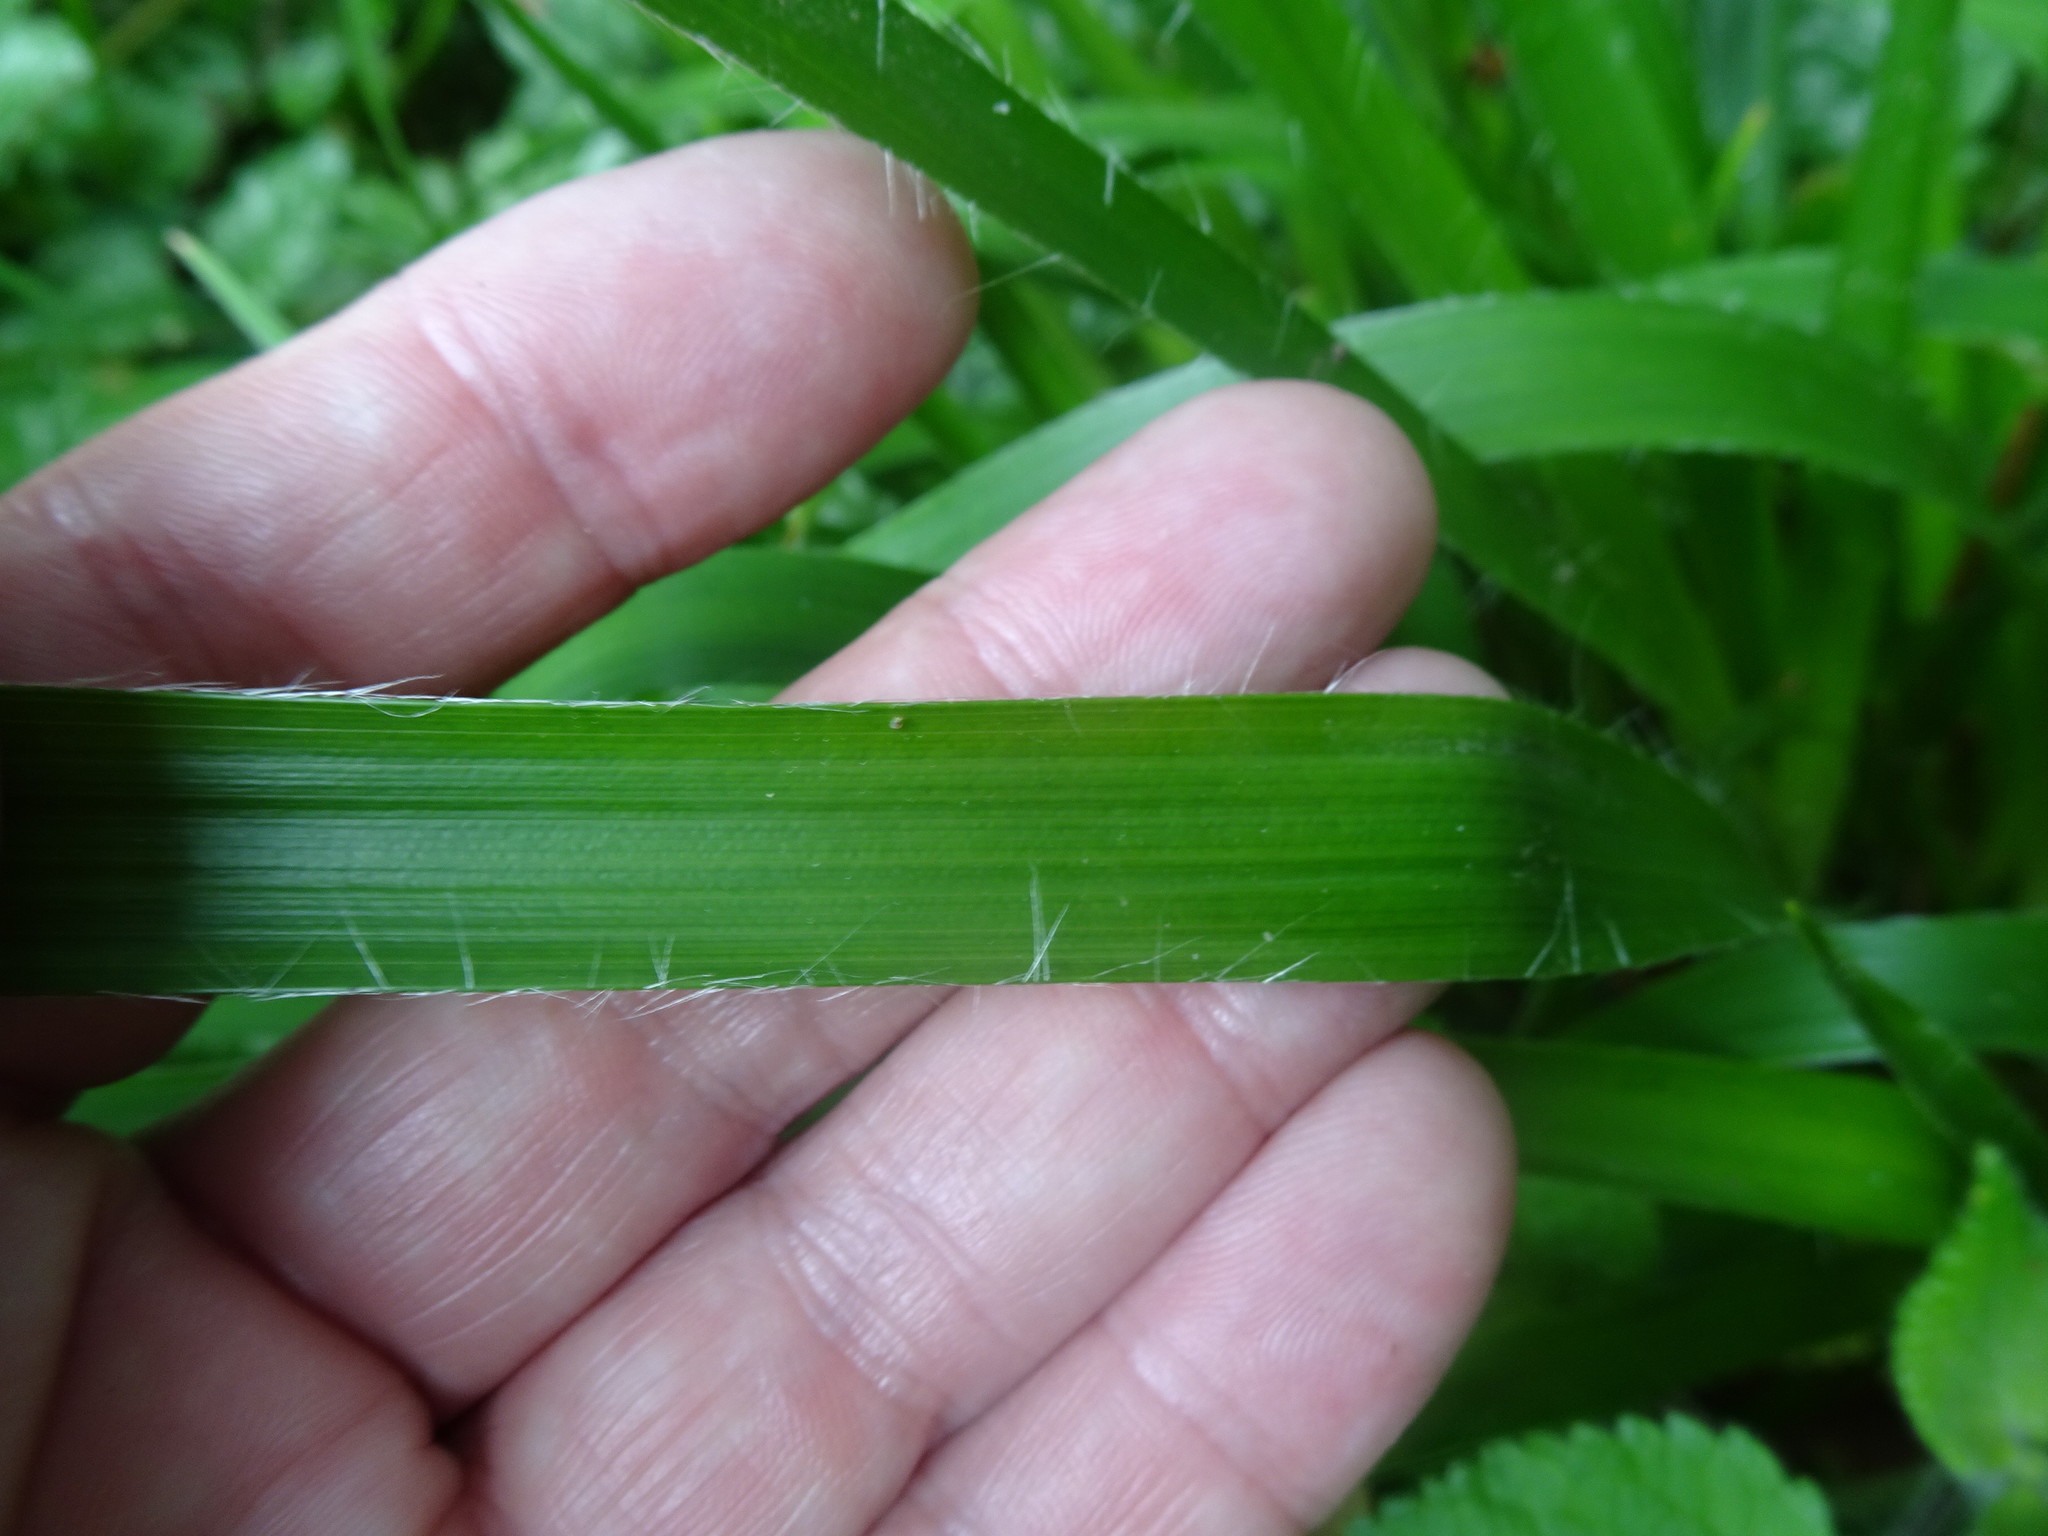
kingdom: Plantae
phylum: Tracheophyta
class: Liliopsida
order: Poales
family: Juncaceae
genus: Luzula
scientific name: Luzula sylvatica
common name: Great wood-rush
